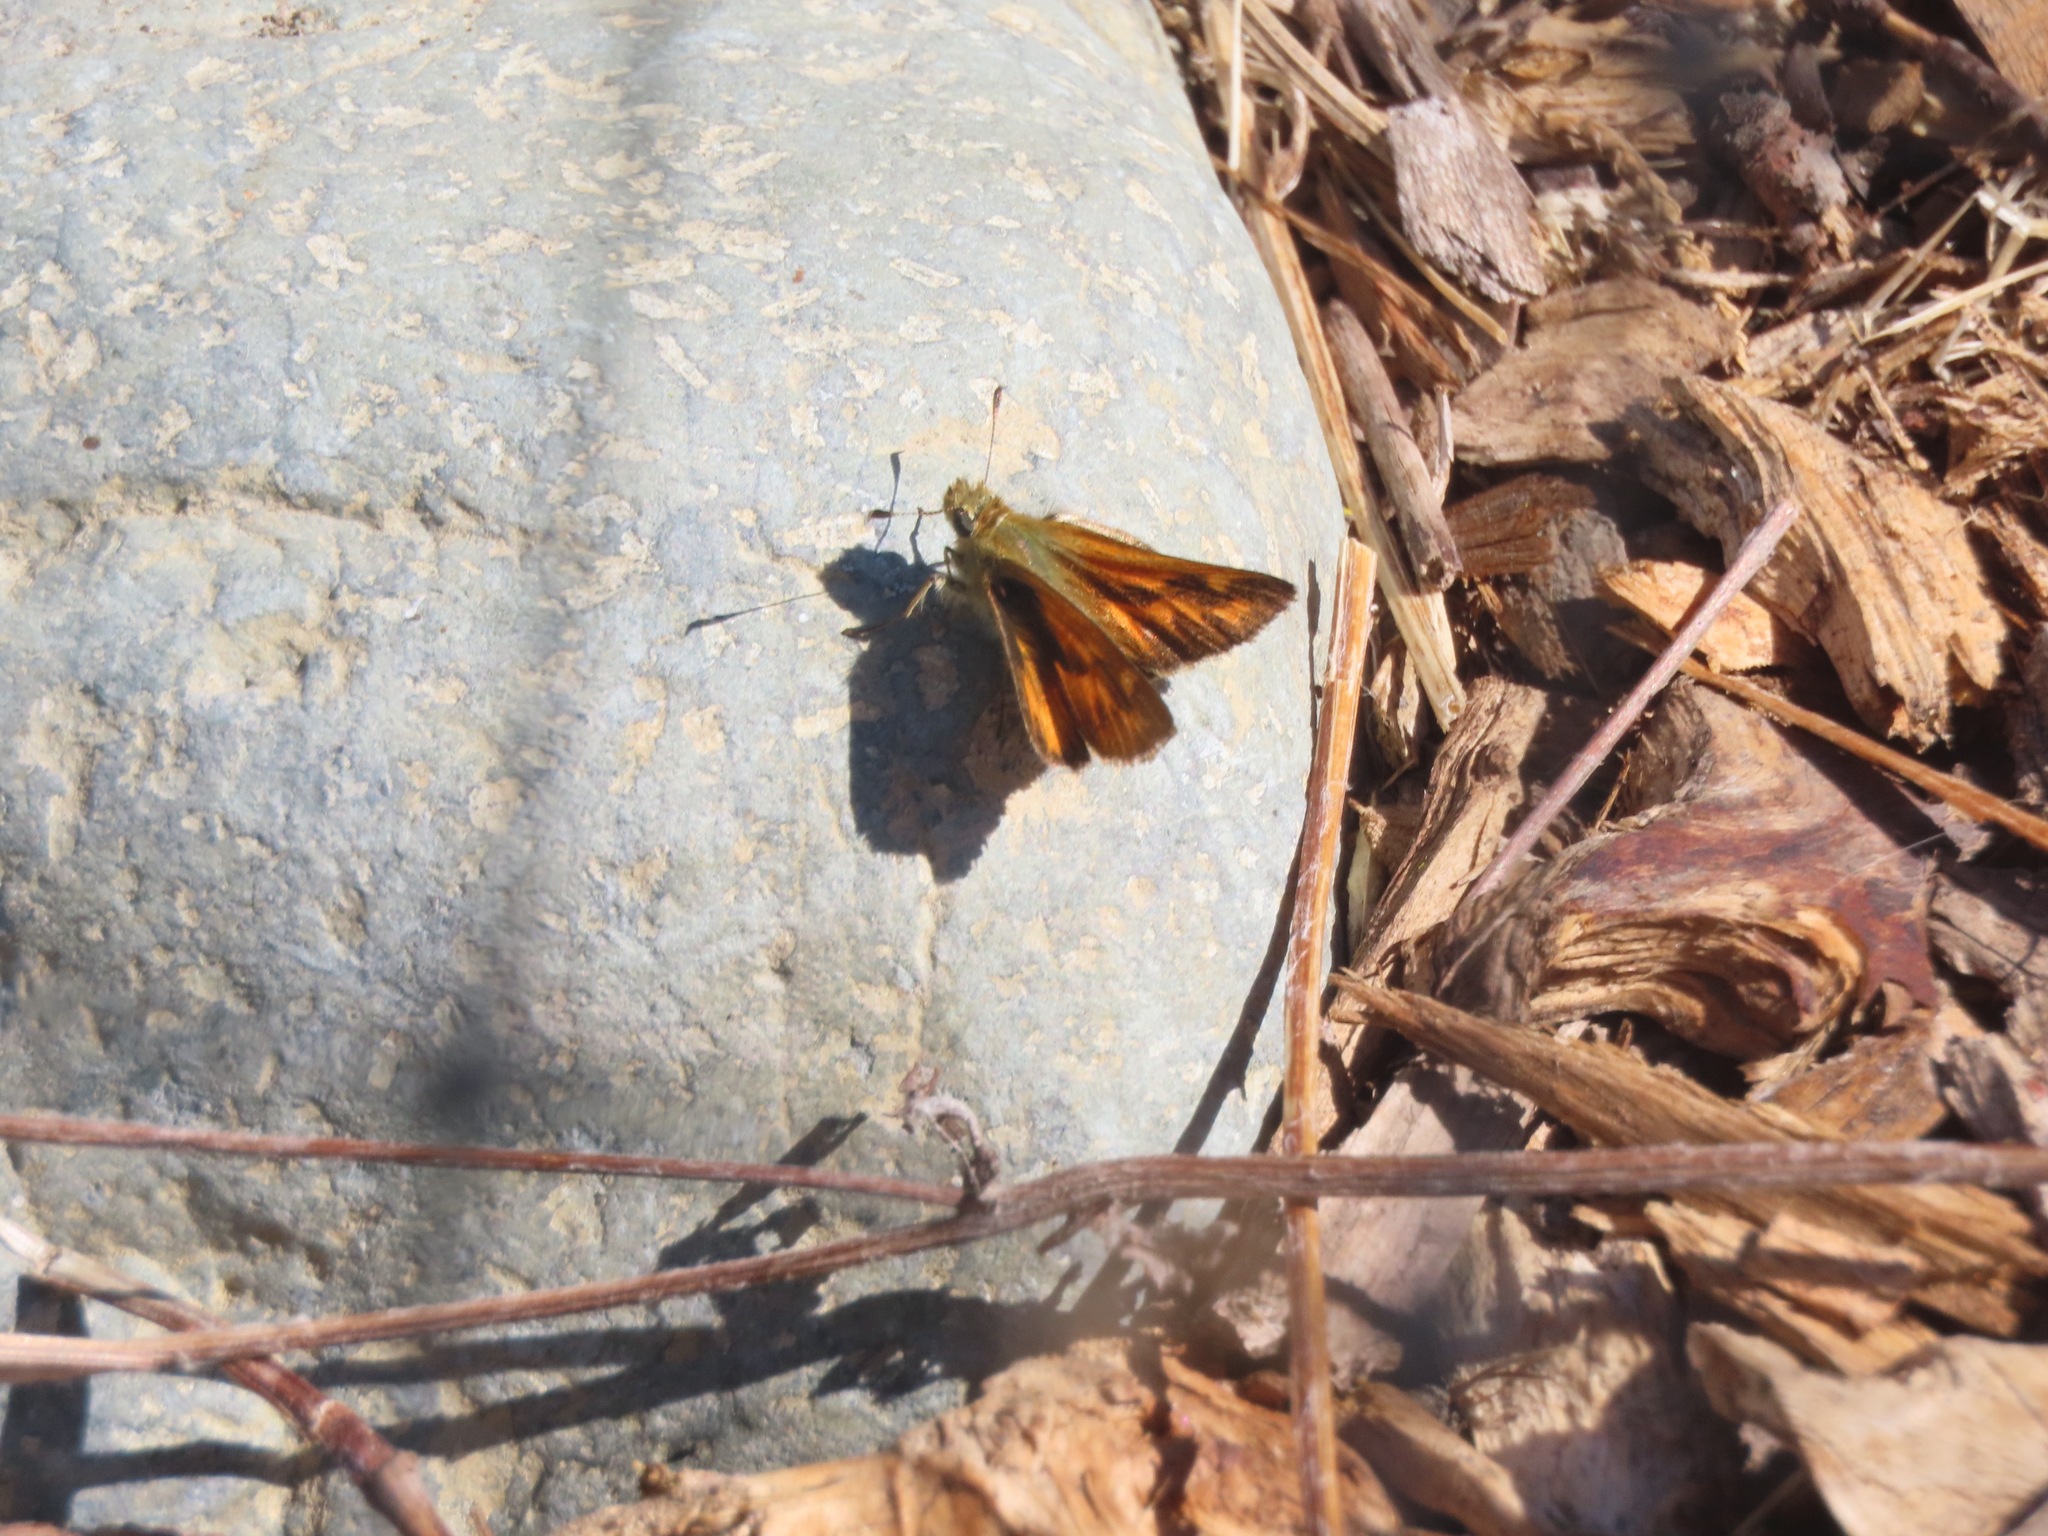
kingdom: Animalia
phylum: Arthropoda
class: Insecta
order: Lepidoptera
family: Hesperiidae
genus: Ochlodes
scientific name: Ochlodes sylvanoides
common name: Woodland skipper
